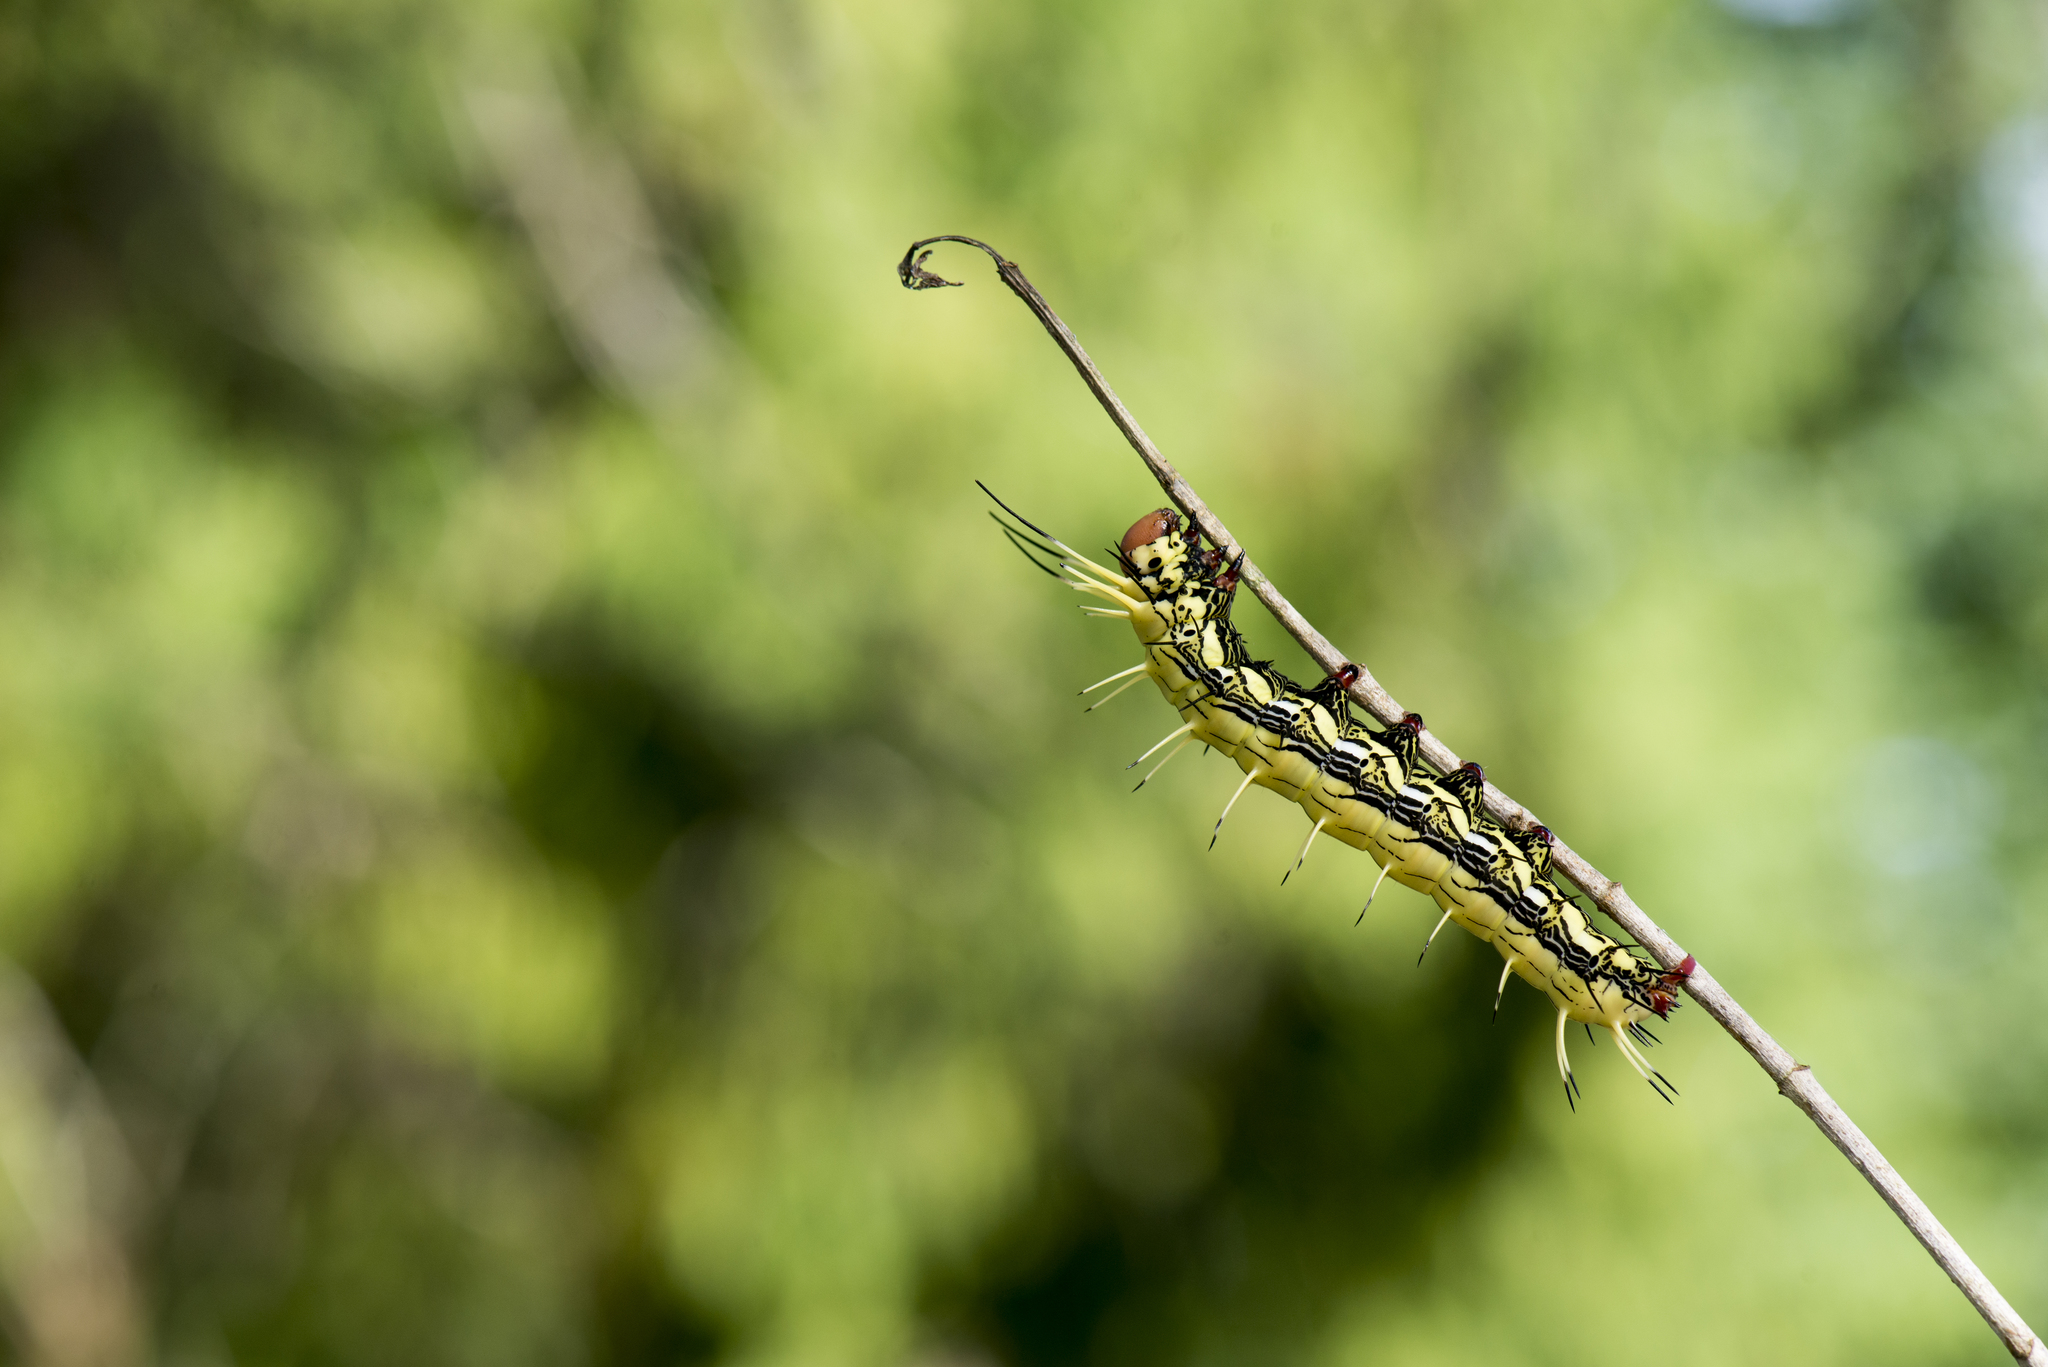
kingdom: Animalia
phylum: Arthropoda
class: Insecta
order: Lepidoptera
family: Notodontidae
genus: Dudusa
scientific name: Dudusa nobilis
